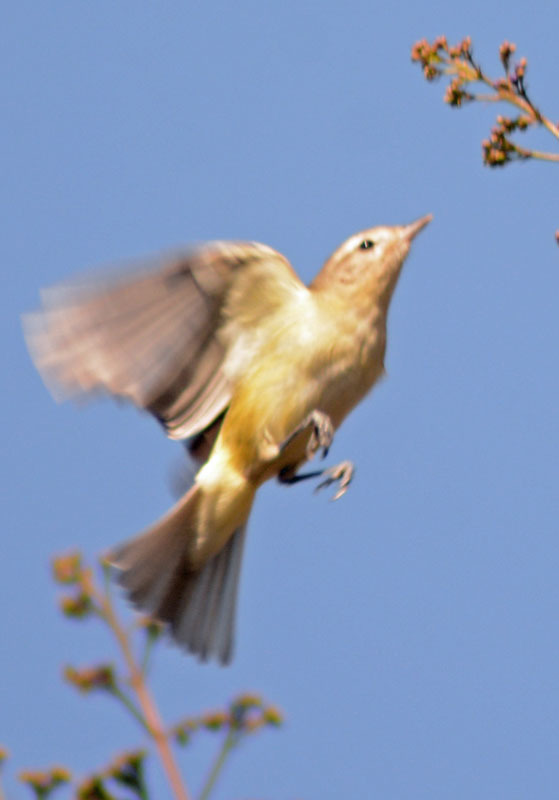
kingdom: Animalia
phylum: Chordata
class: Aves
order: Passeriformes
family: Vireonidae
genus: Vireo
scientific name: Vireo gilvus
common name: Warbling vireo
